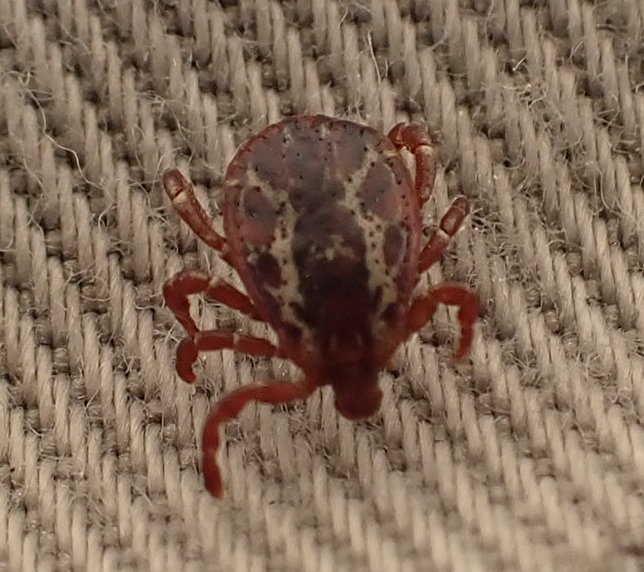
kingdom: Animalia
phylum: Arthropoda
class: Arachnida
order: Ixodida
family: Ixodidae
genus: Dermacentor
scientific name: Dermacentor variabilis
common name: American dog tick
